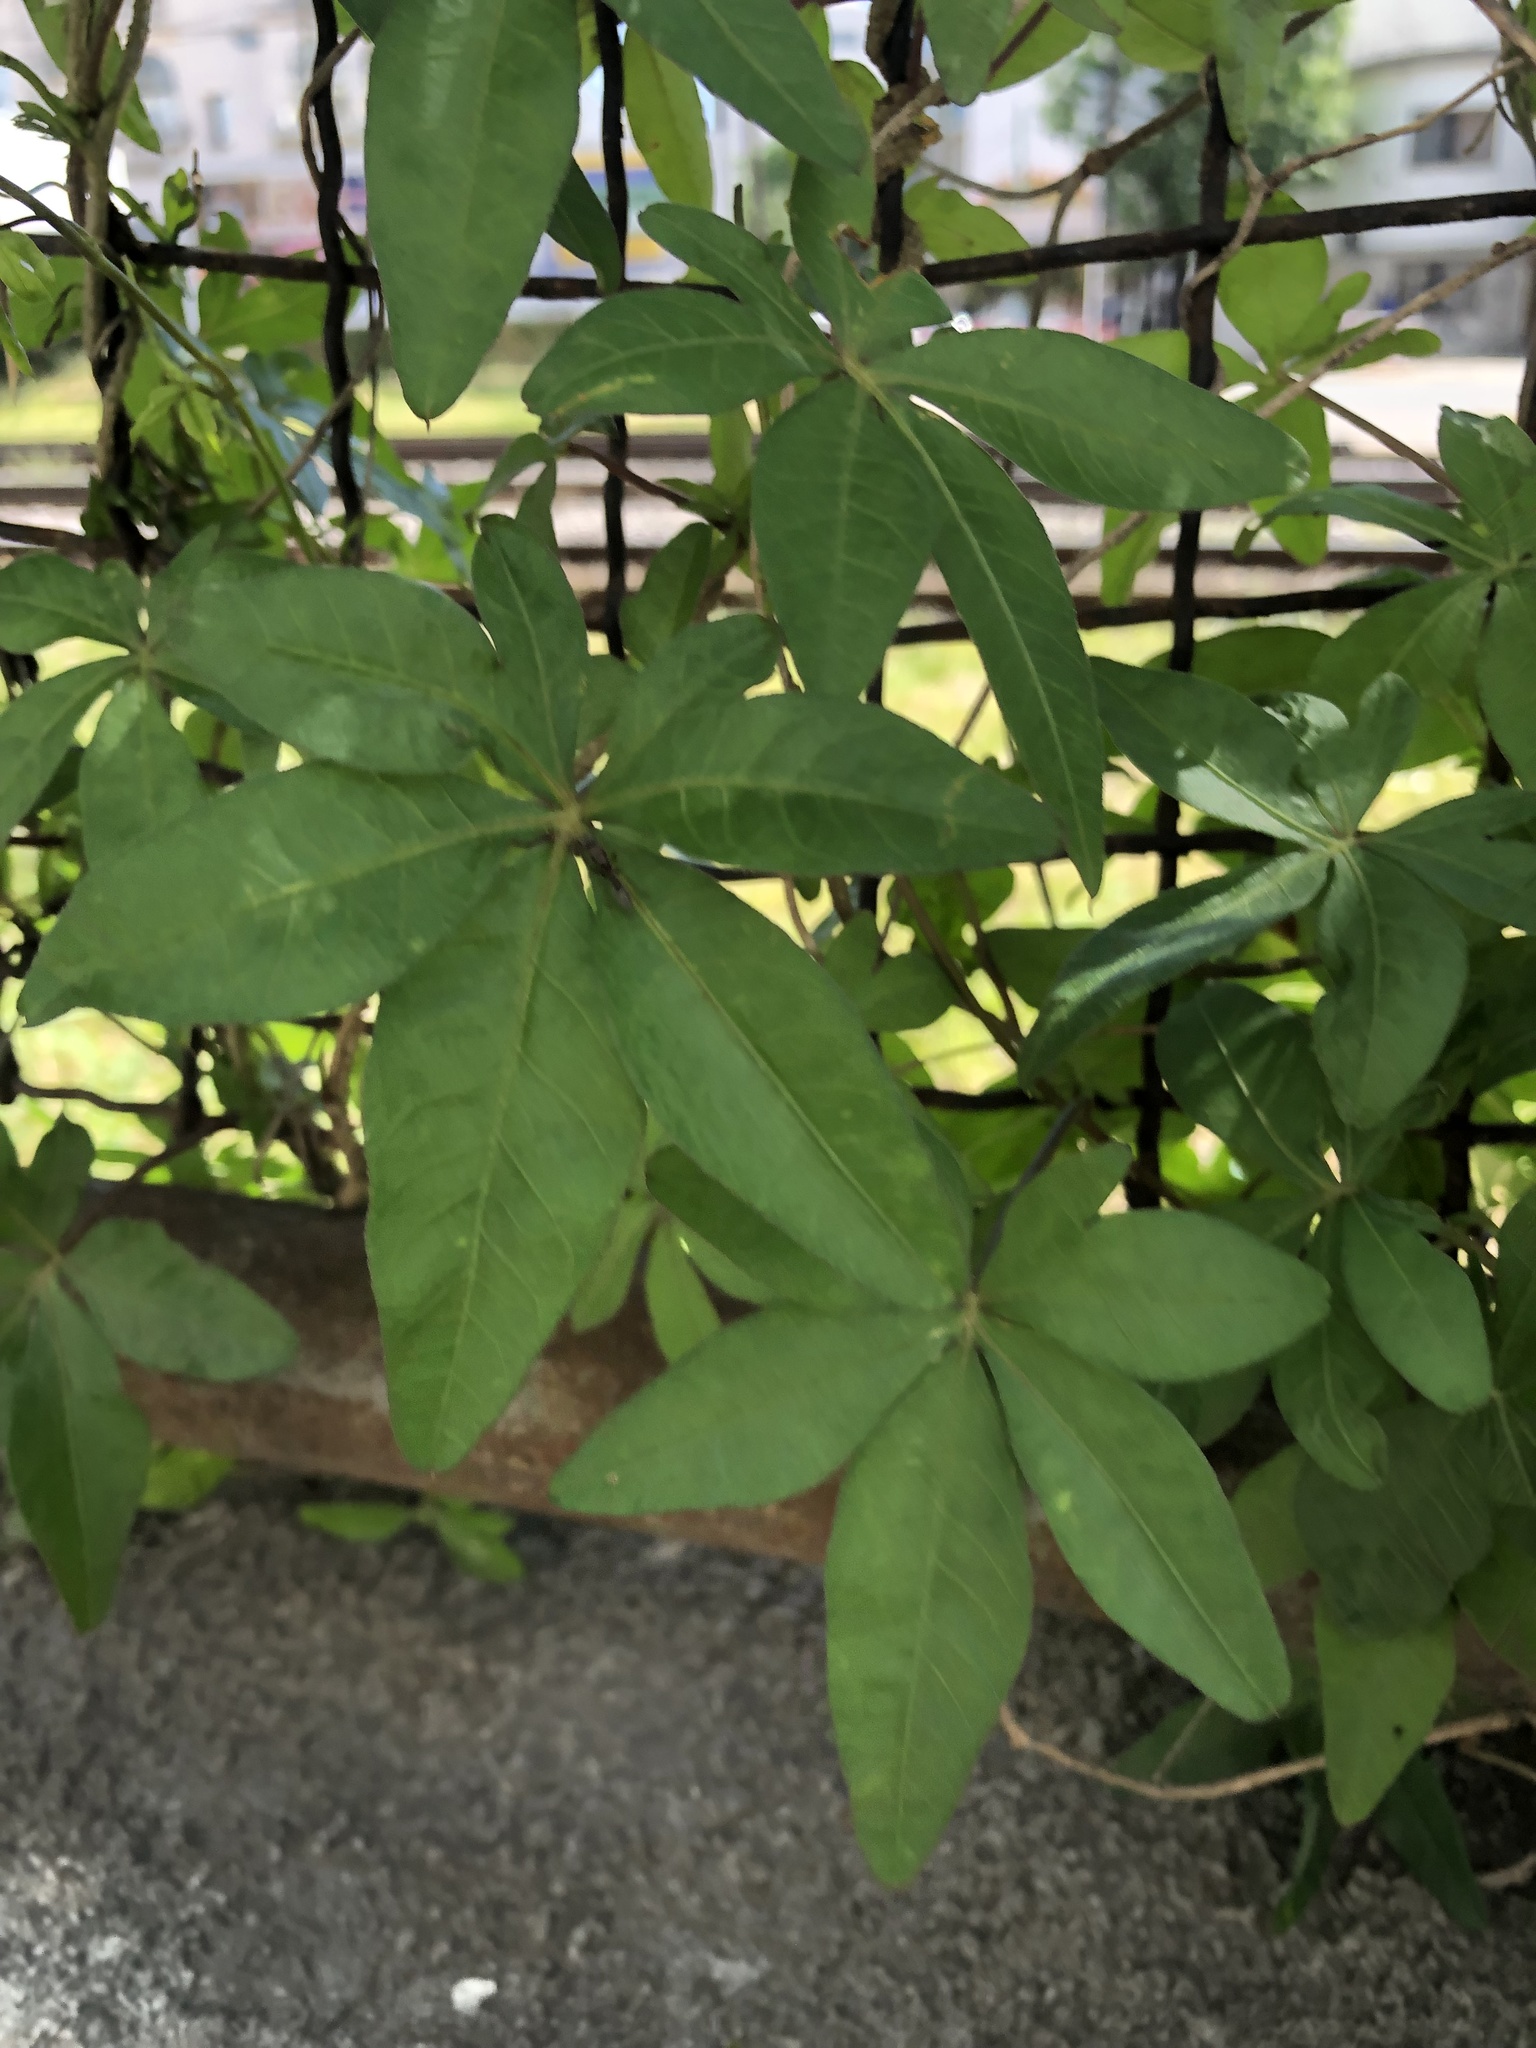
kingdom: Plantae
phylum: Tracheophyta
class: Magnoliopsida
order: Solanales
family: Convolvulaceae
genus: Ipomoea
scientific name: Ipomoea cairica
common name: Mile a minute vine
